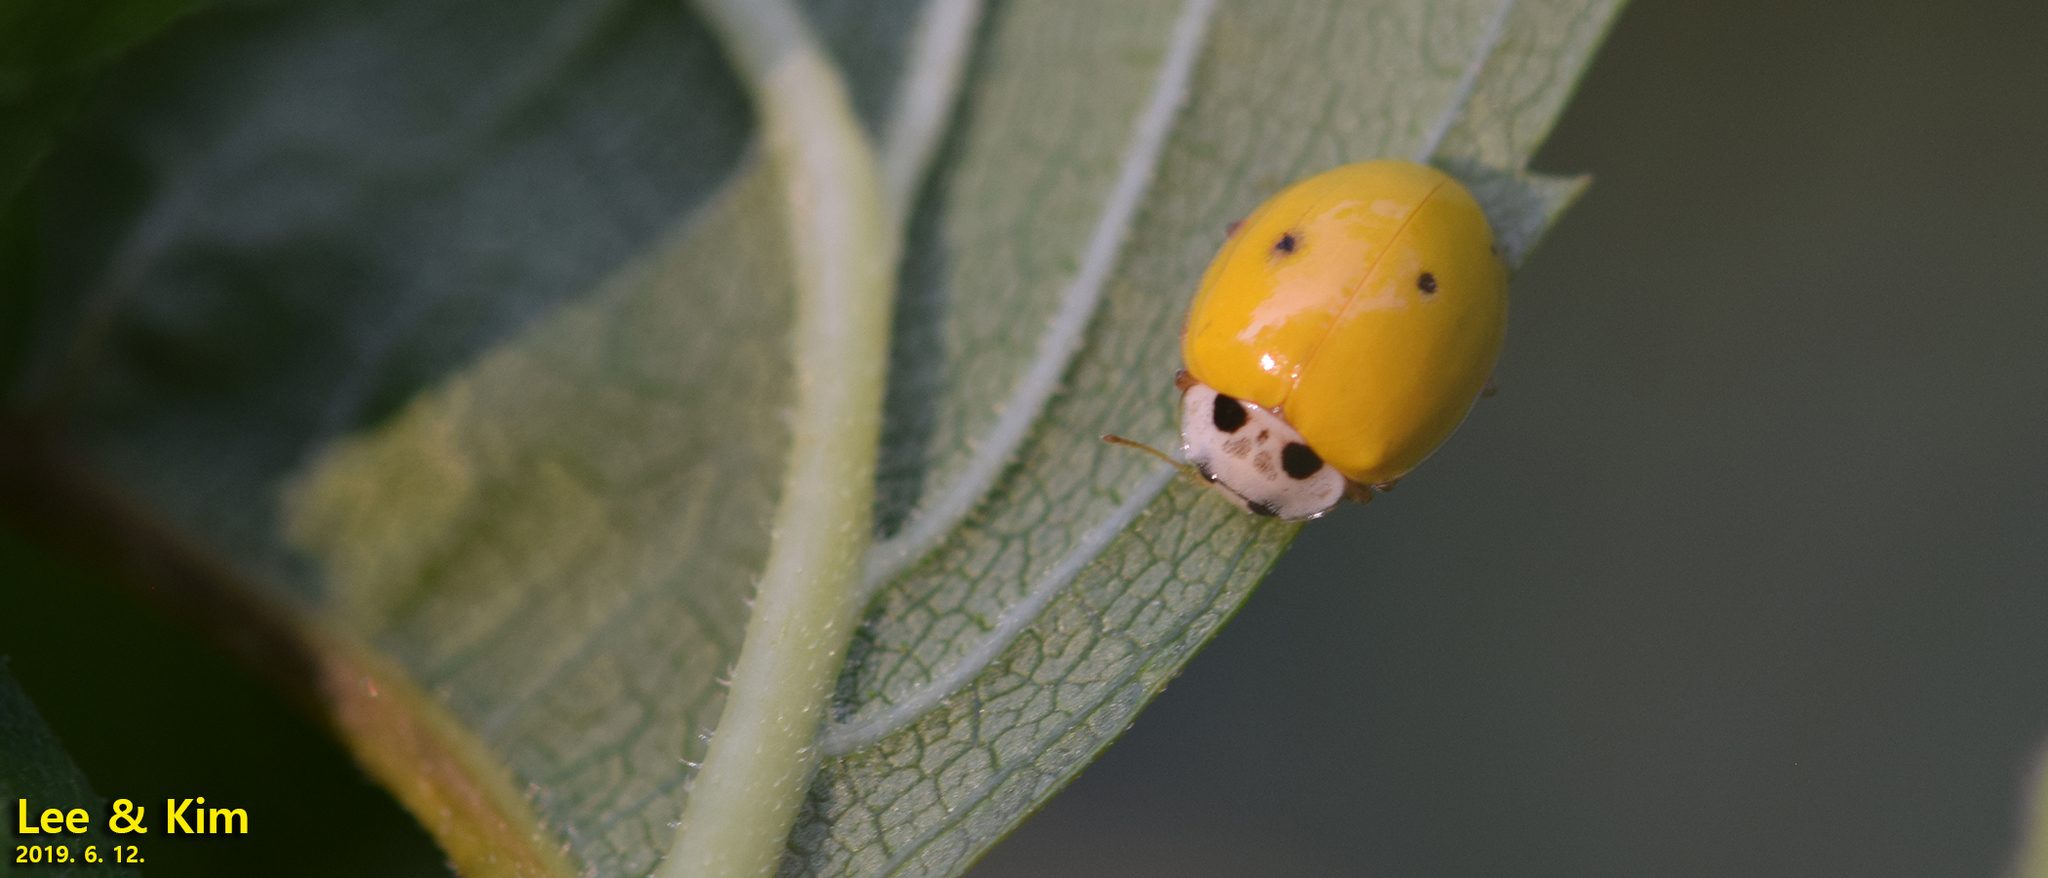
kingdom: Animalia
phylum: Arthropoda
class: Insecta
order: Coleoptera
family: Coccinellidae
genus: Illeis
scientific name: Illeis koebelei
